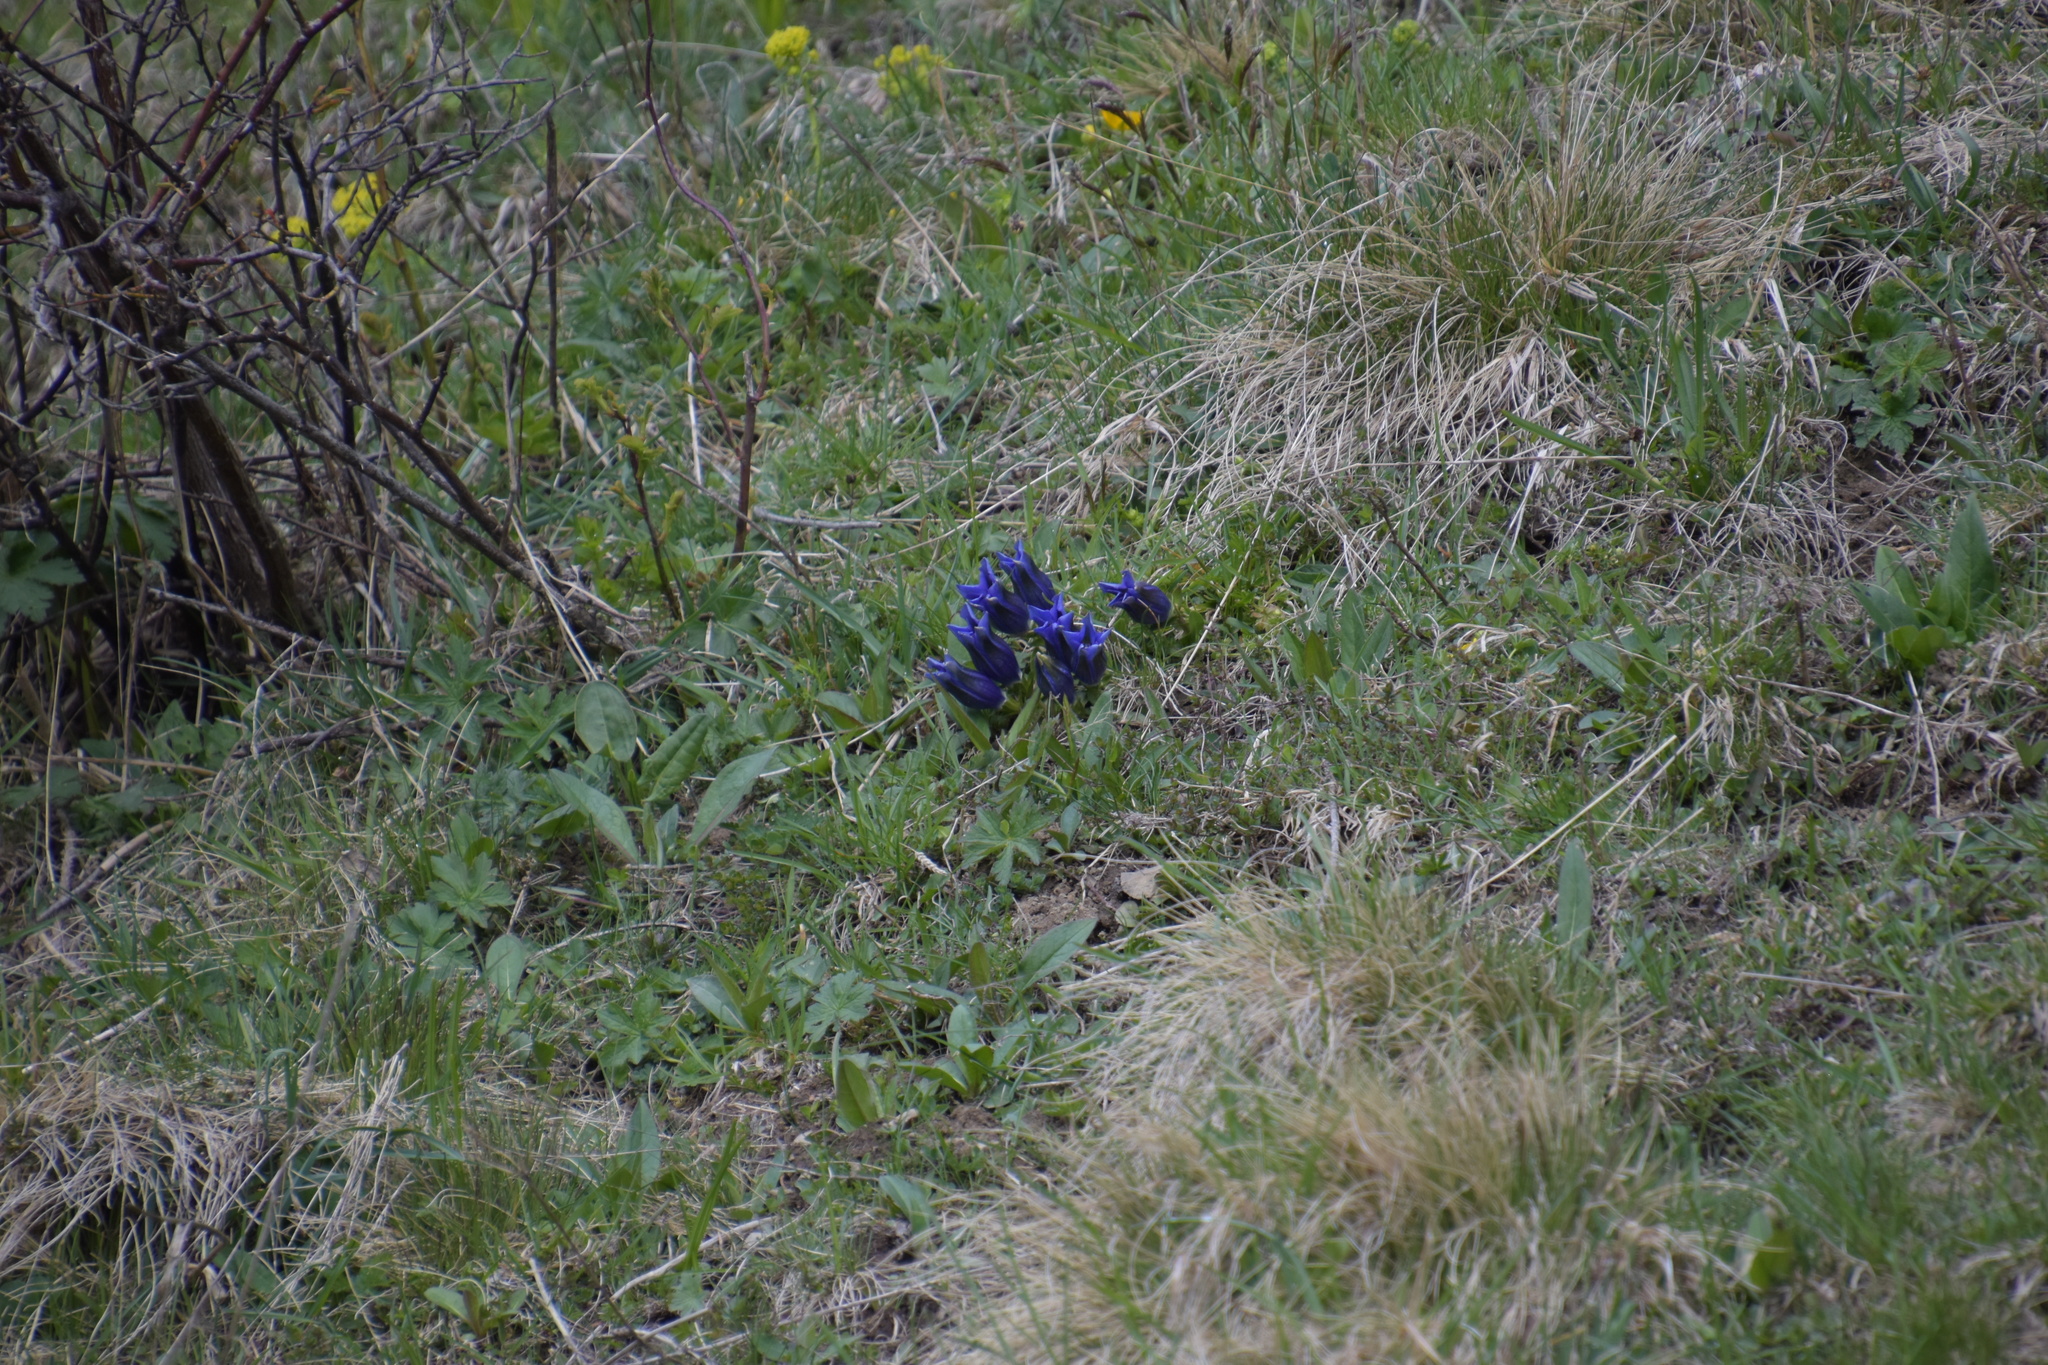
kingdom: Plantae
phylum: Tracheophyta
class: Magnoliopsida
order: Gentianales
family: Gentianaceae
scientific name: Gentianaceae
